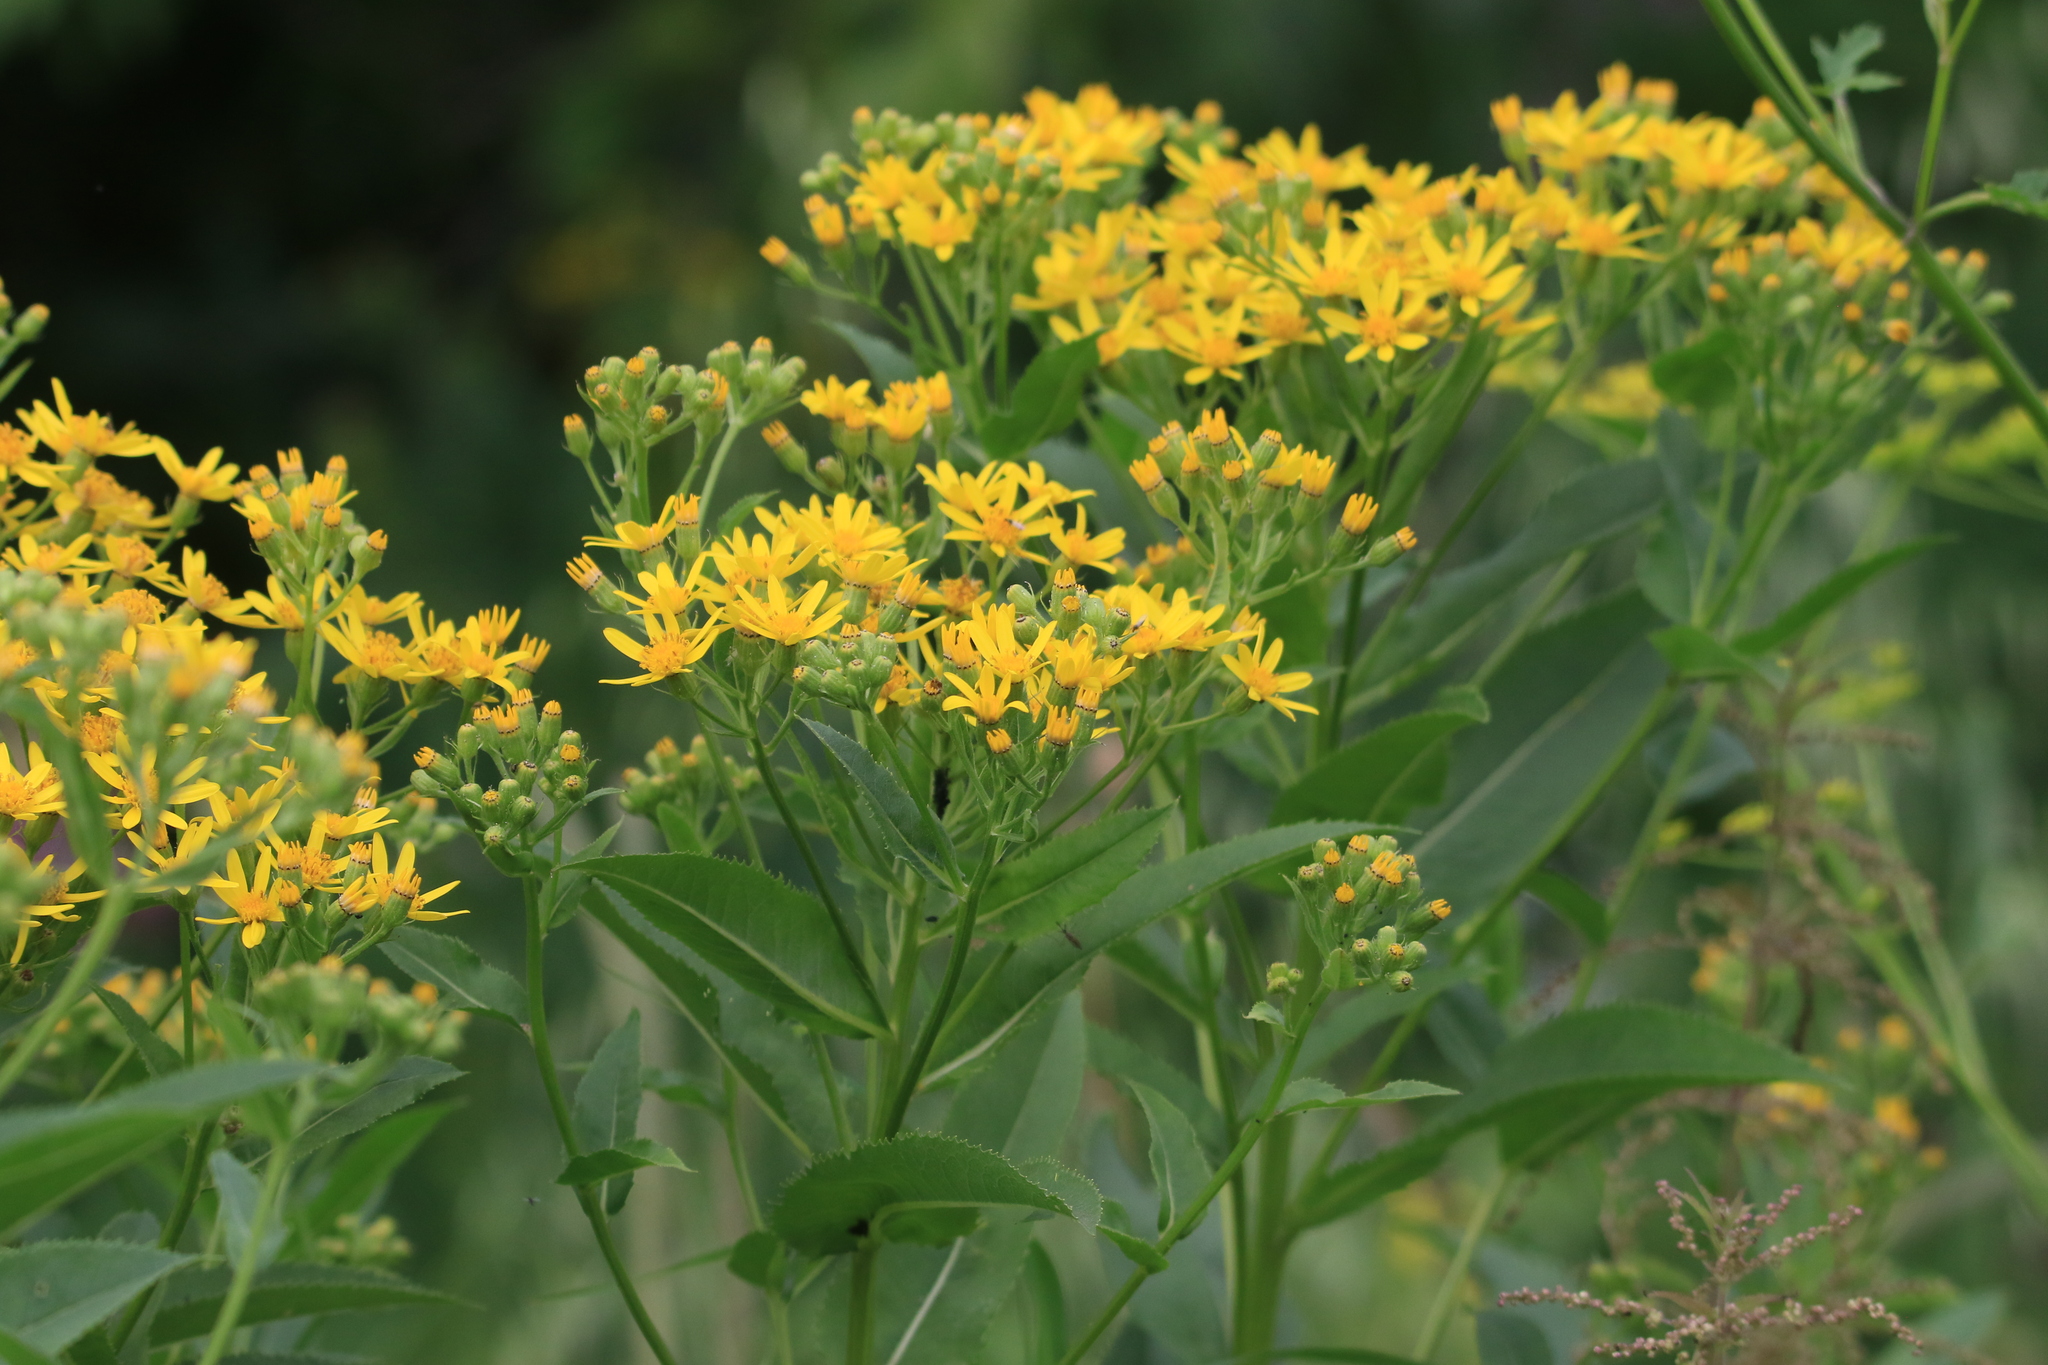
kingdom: Plantae
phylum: Tracheophyta
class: Magnoliopsida
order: Asterales
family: Asteraceae
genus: Senecio
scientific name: Senecio sarracenicus
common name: Broad-leaved ragwort
